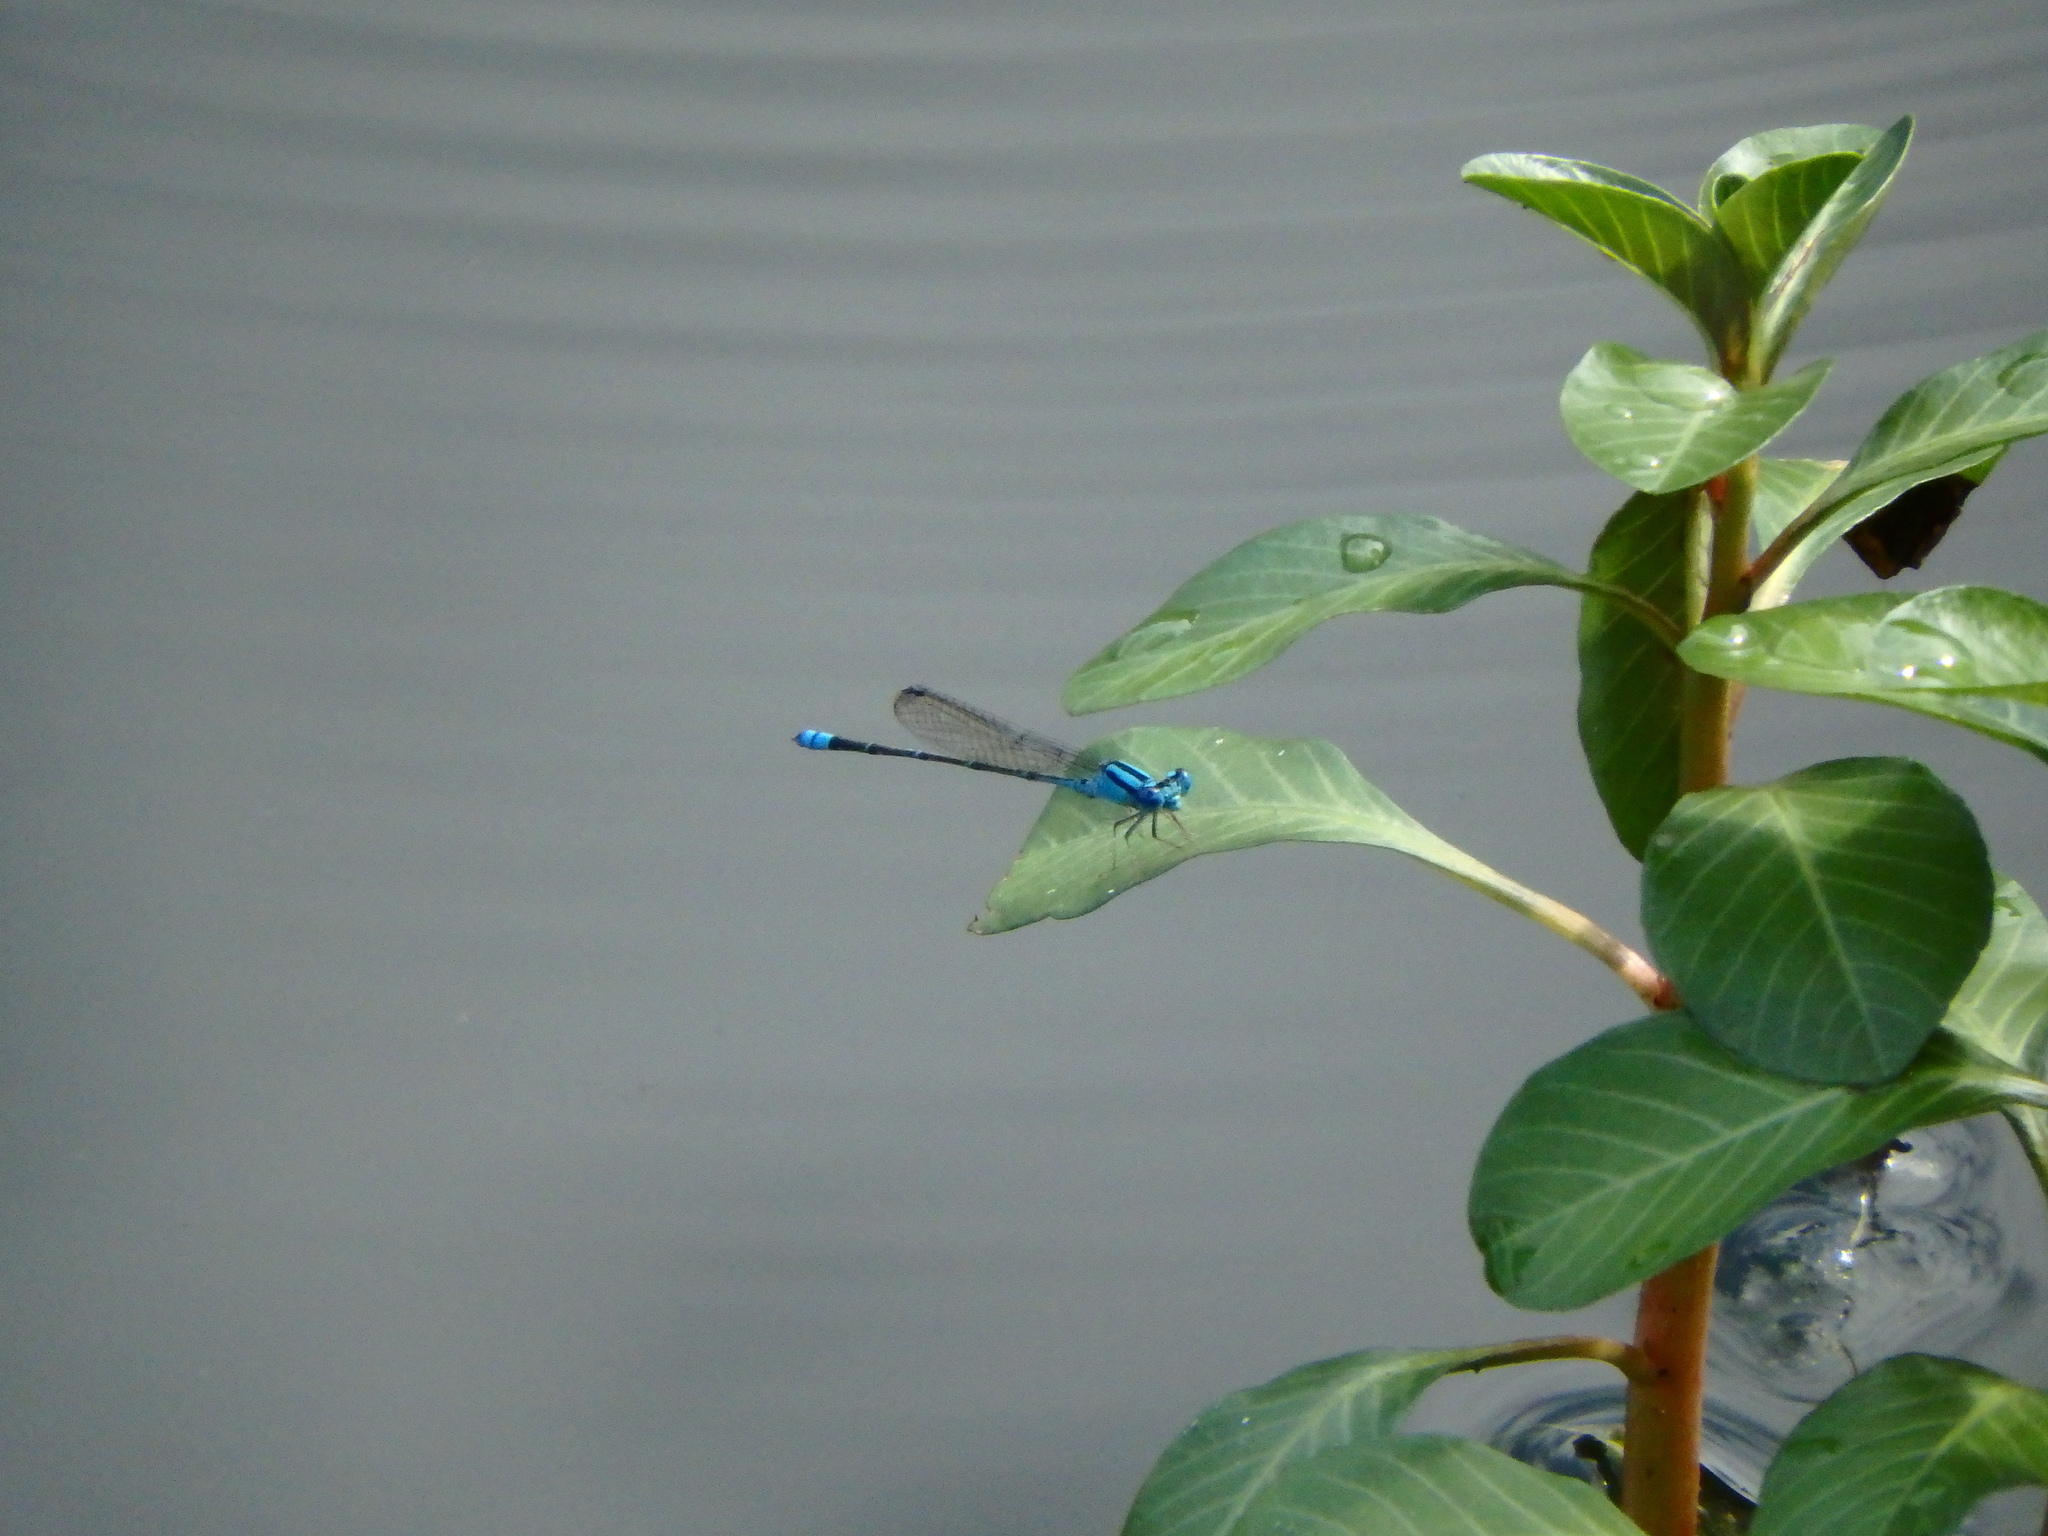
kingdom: Animalia
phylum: Arthropoda
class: Insecta
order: Odonata
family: Coenagrionidae
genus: Pseudagrion
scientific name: Pseudagrion microcephalum
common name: Blue riverdamsel
